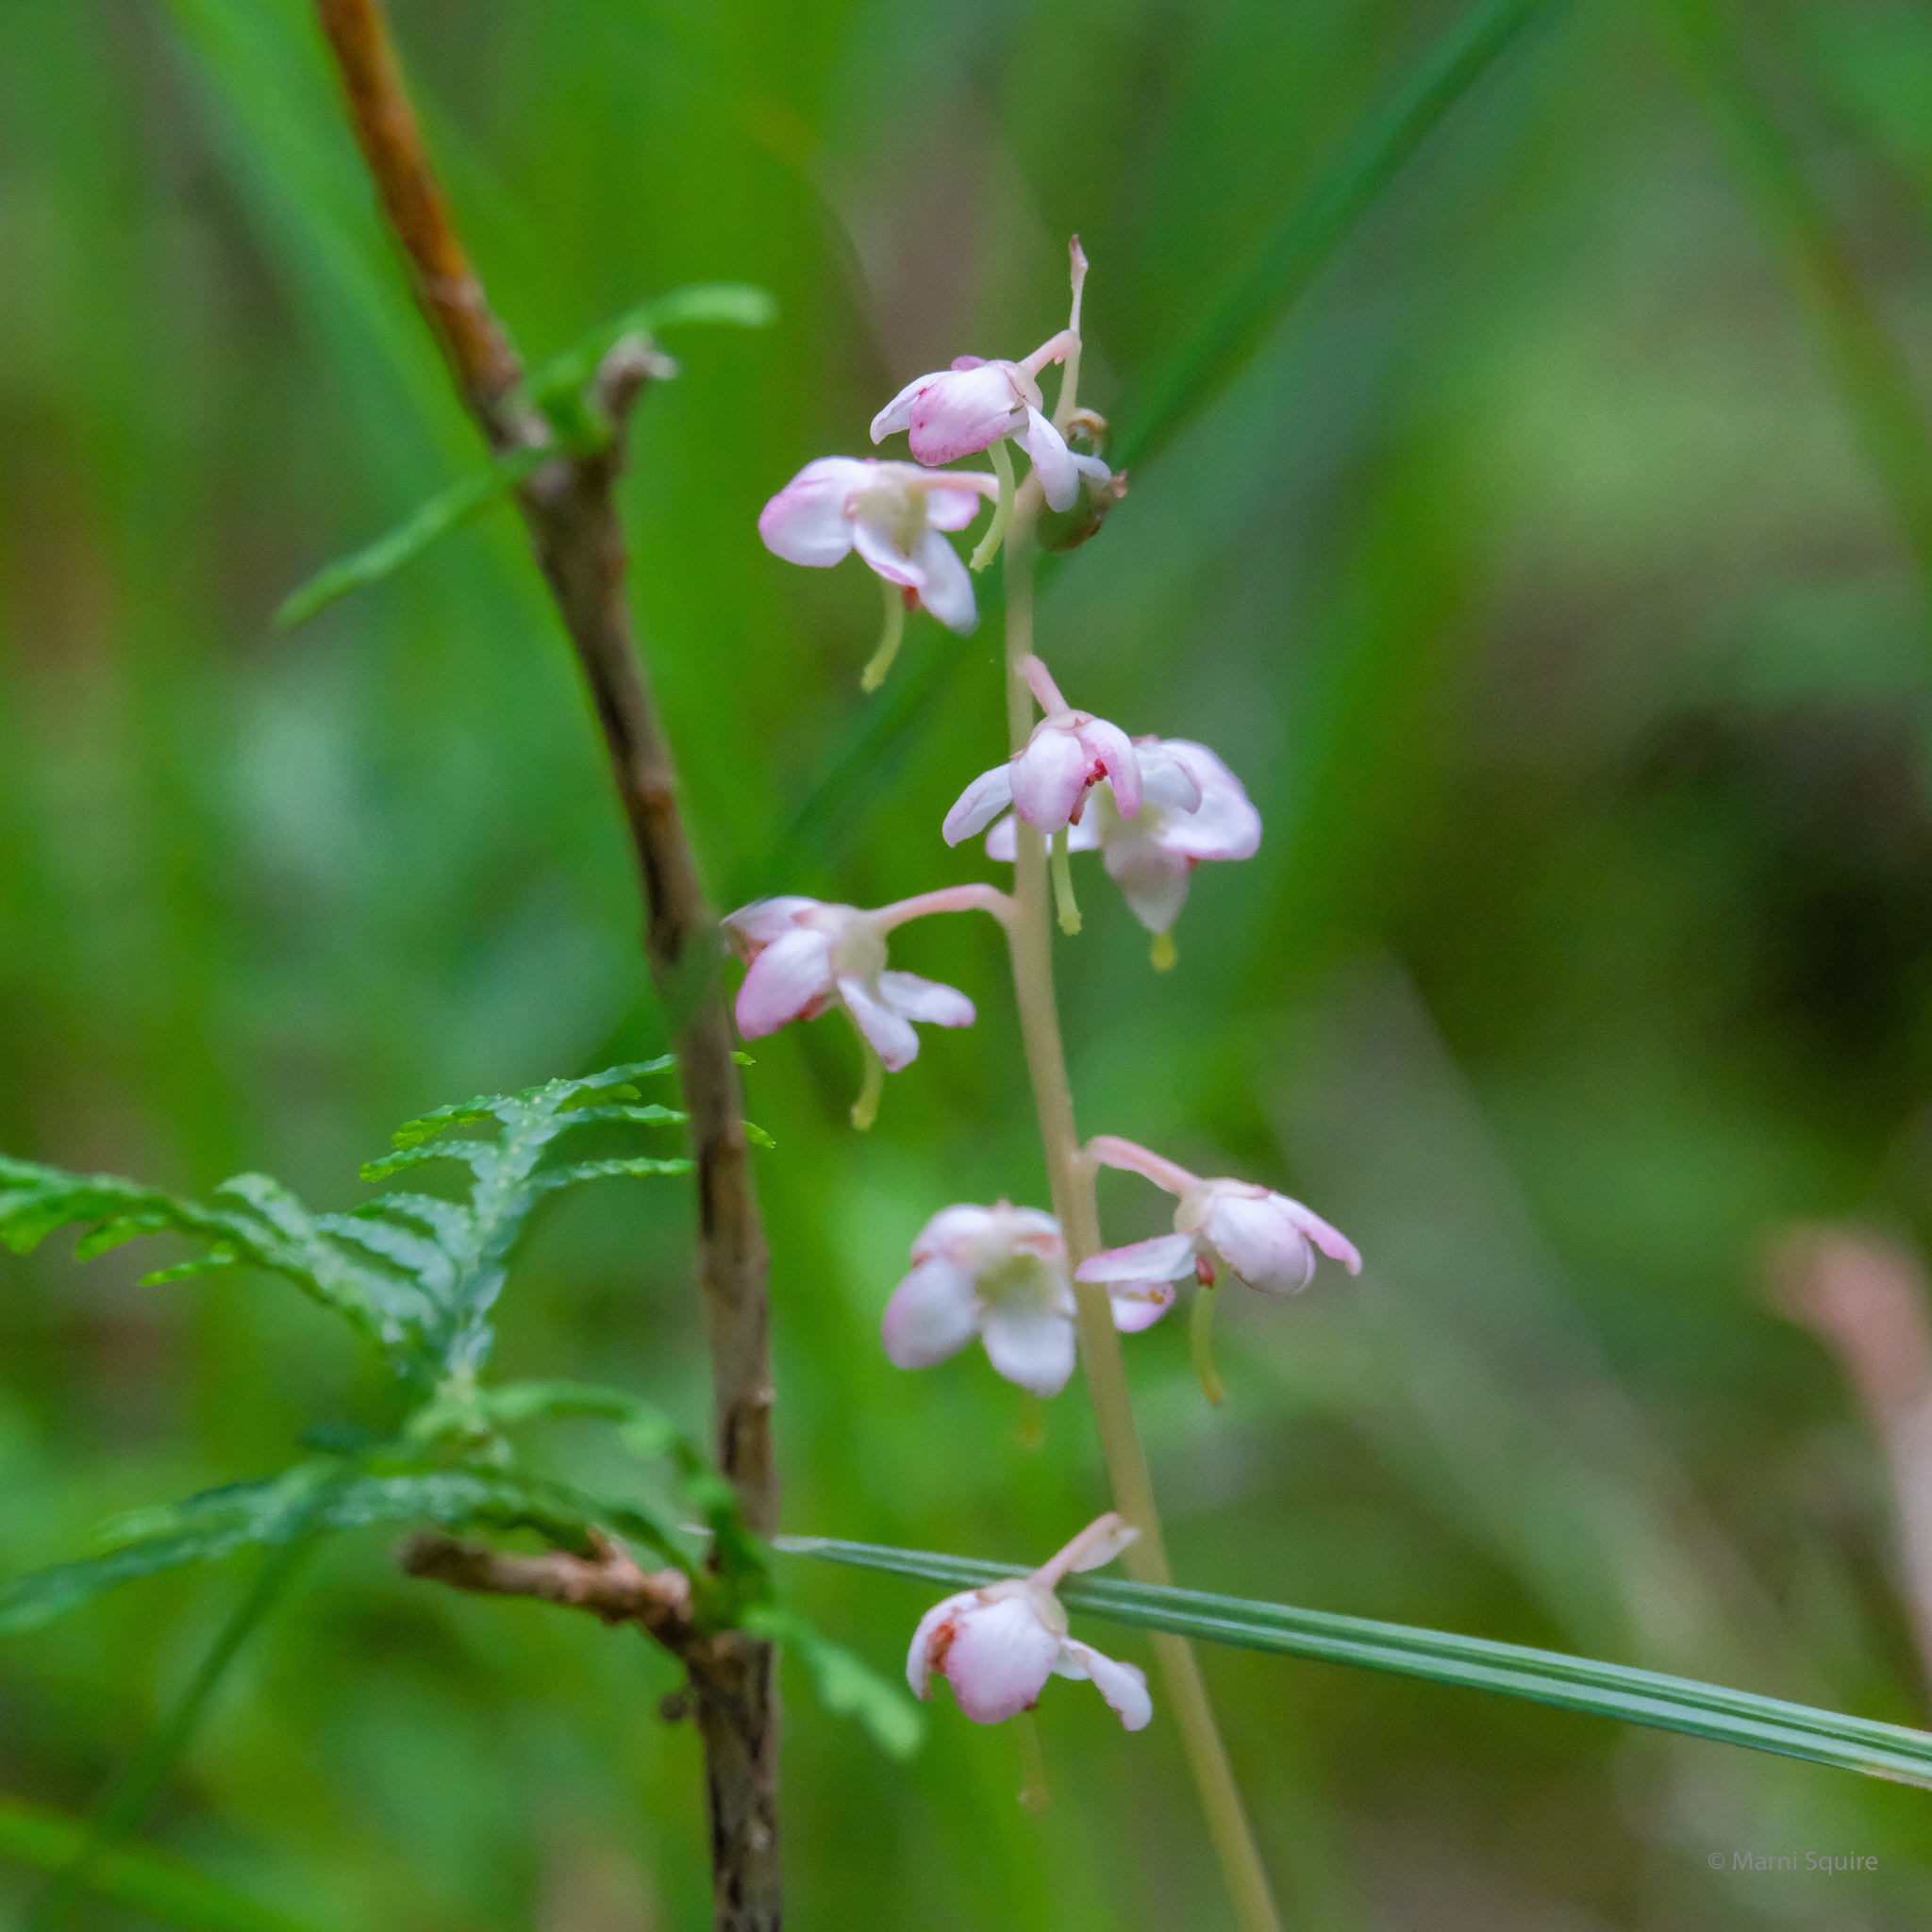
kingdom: Plantae
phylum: Tracheophyta
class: Magnoliopsida
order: Ericales
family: Ericaceae
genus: Pyrola
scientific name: Pyrola asarifolia
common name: Bog wintergreen
